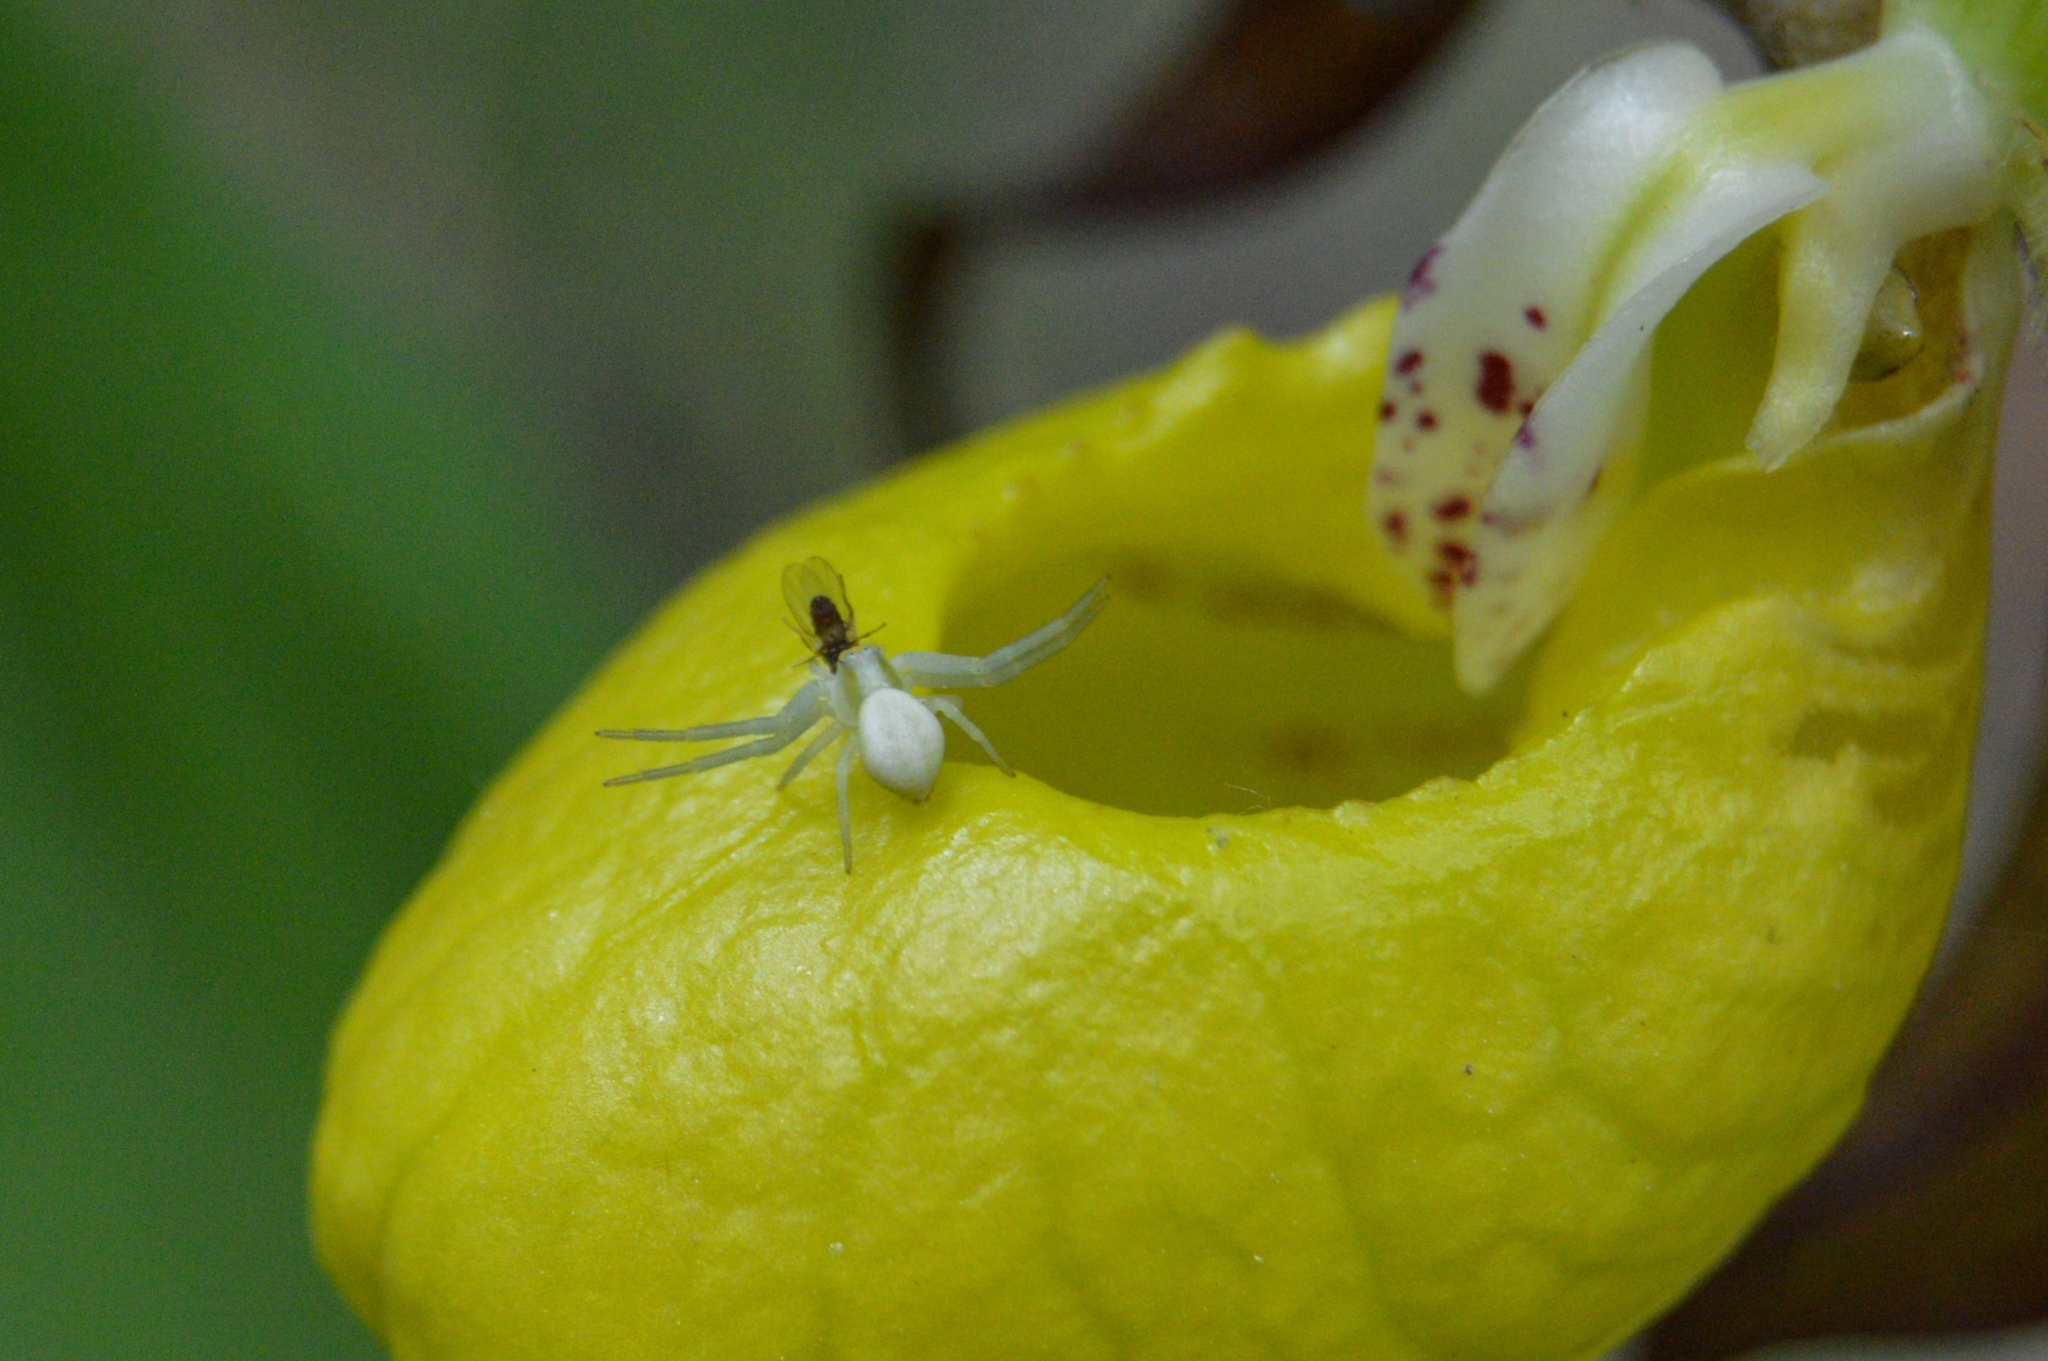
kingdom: Animalia
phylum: Arthropoda
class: Arachnida
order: Araneae
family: Thomisidae
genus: Misumena
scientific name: Misumena vatia
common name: Goldenrod crab spider
